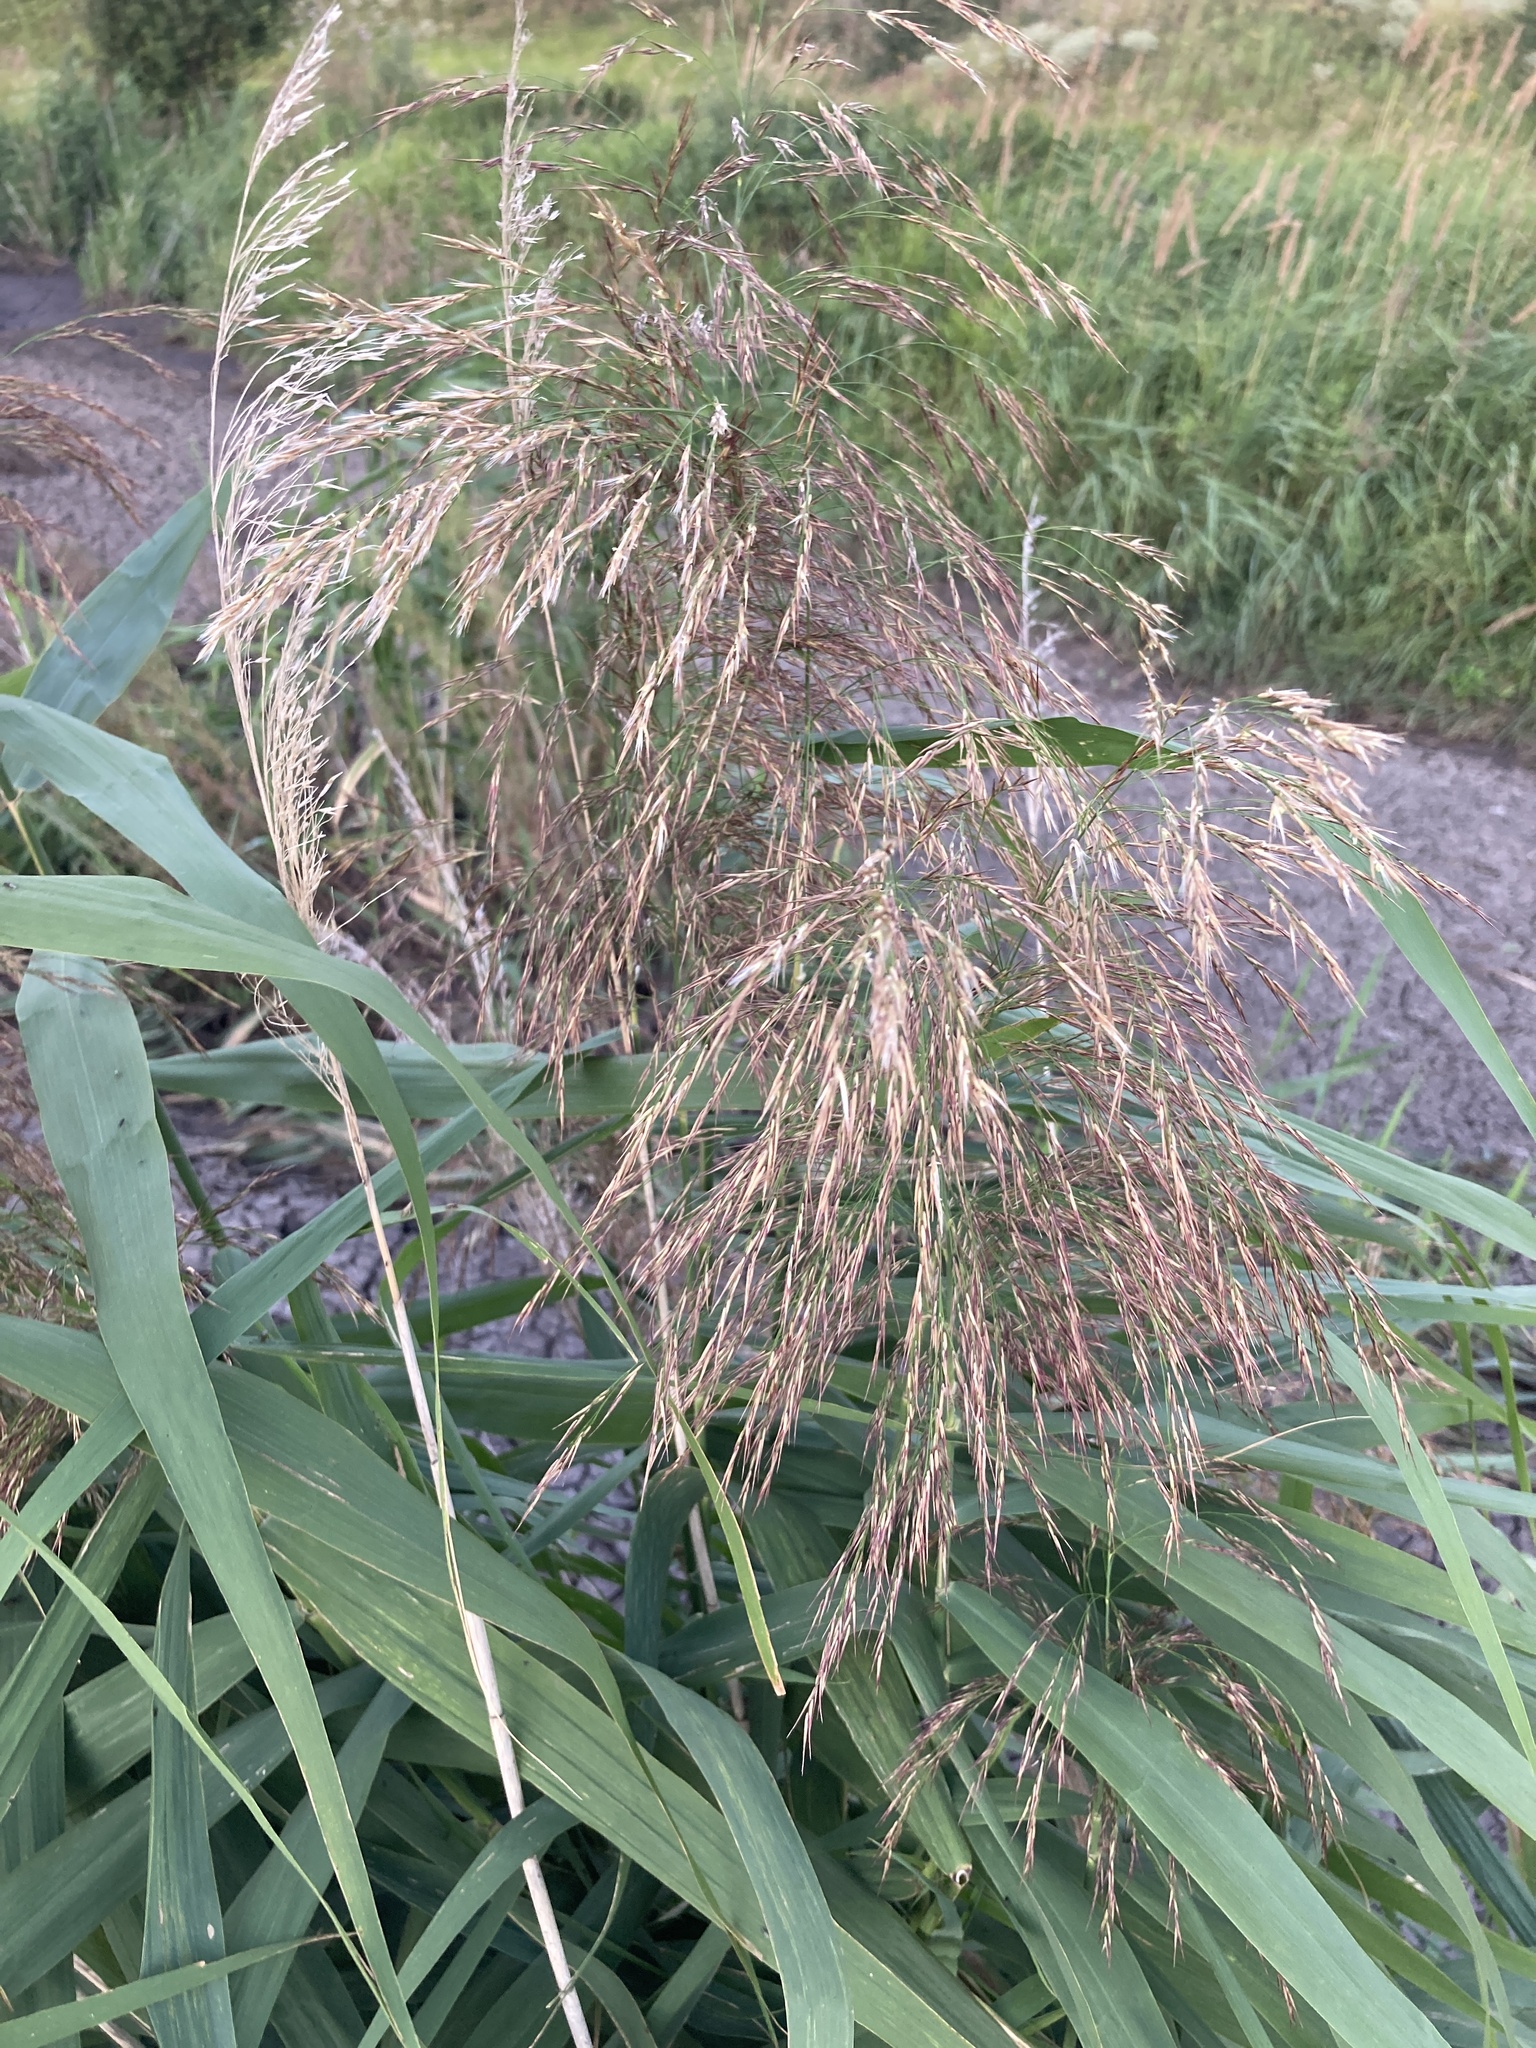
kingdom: Plantae
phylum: Tracheophyta
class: Liliopsida
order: Poales
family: Poaceae
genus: Phragmites
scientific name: Phragmites australis
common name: Common reed
